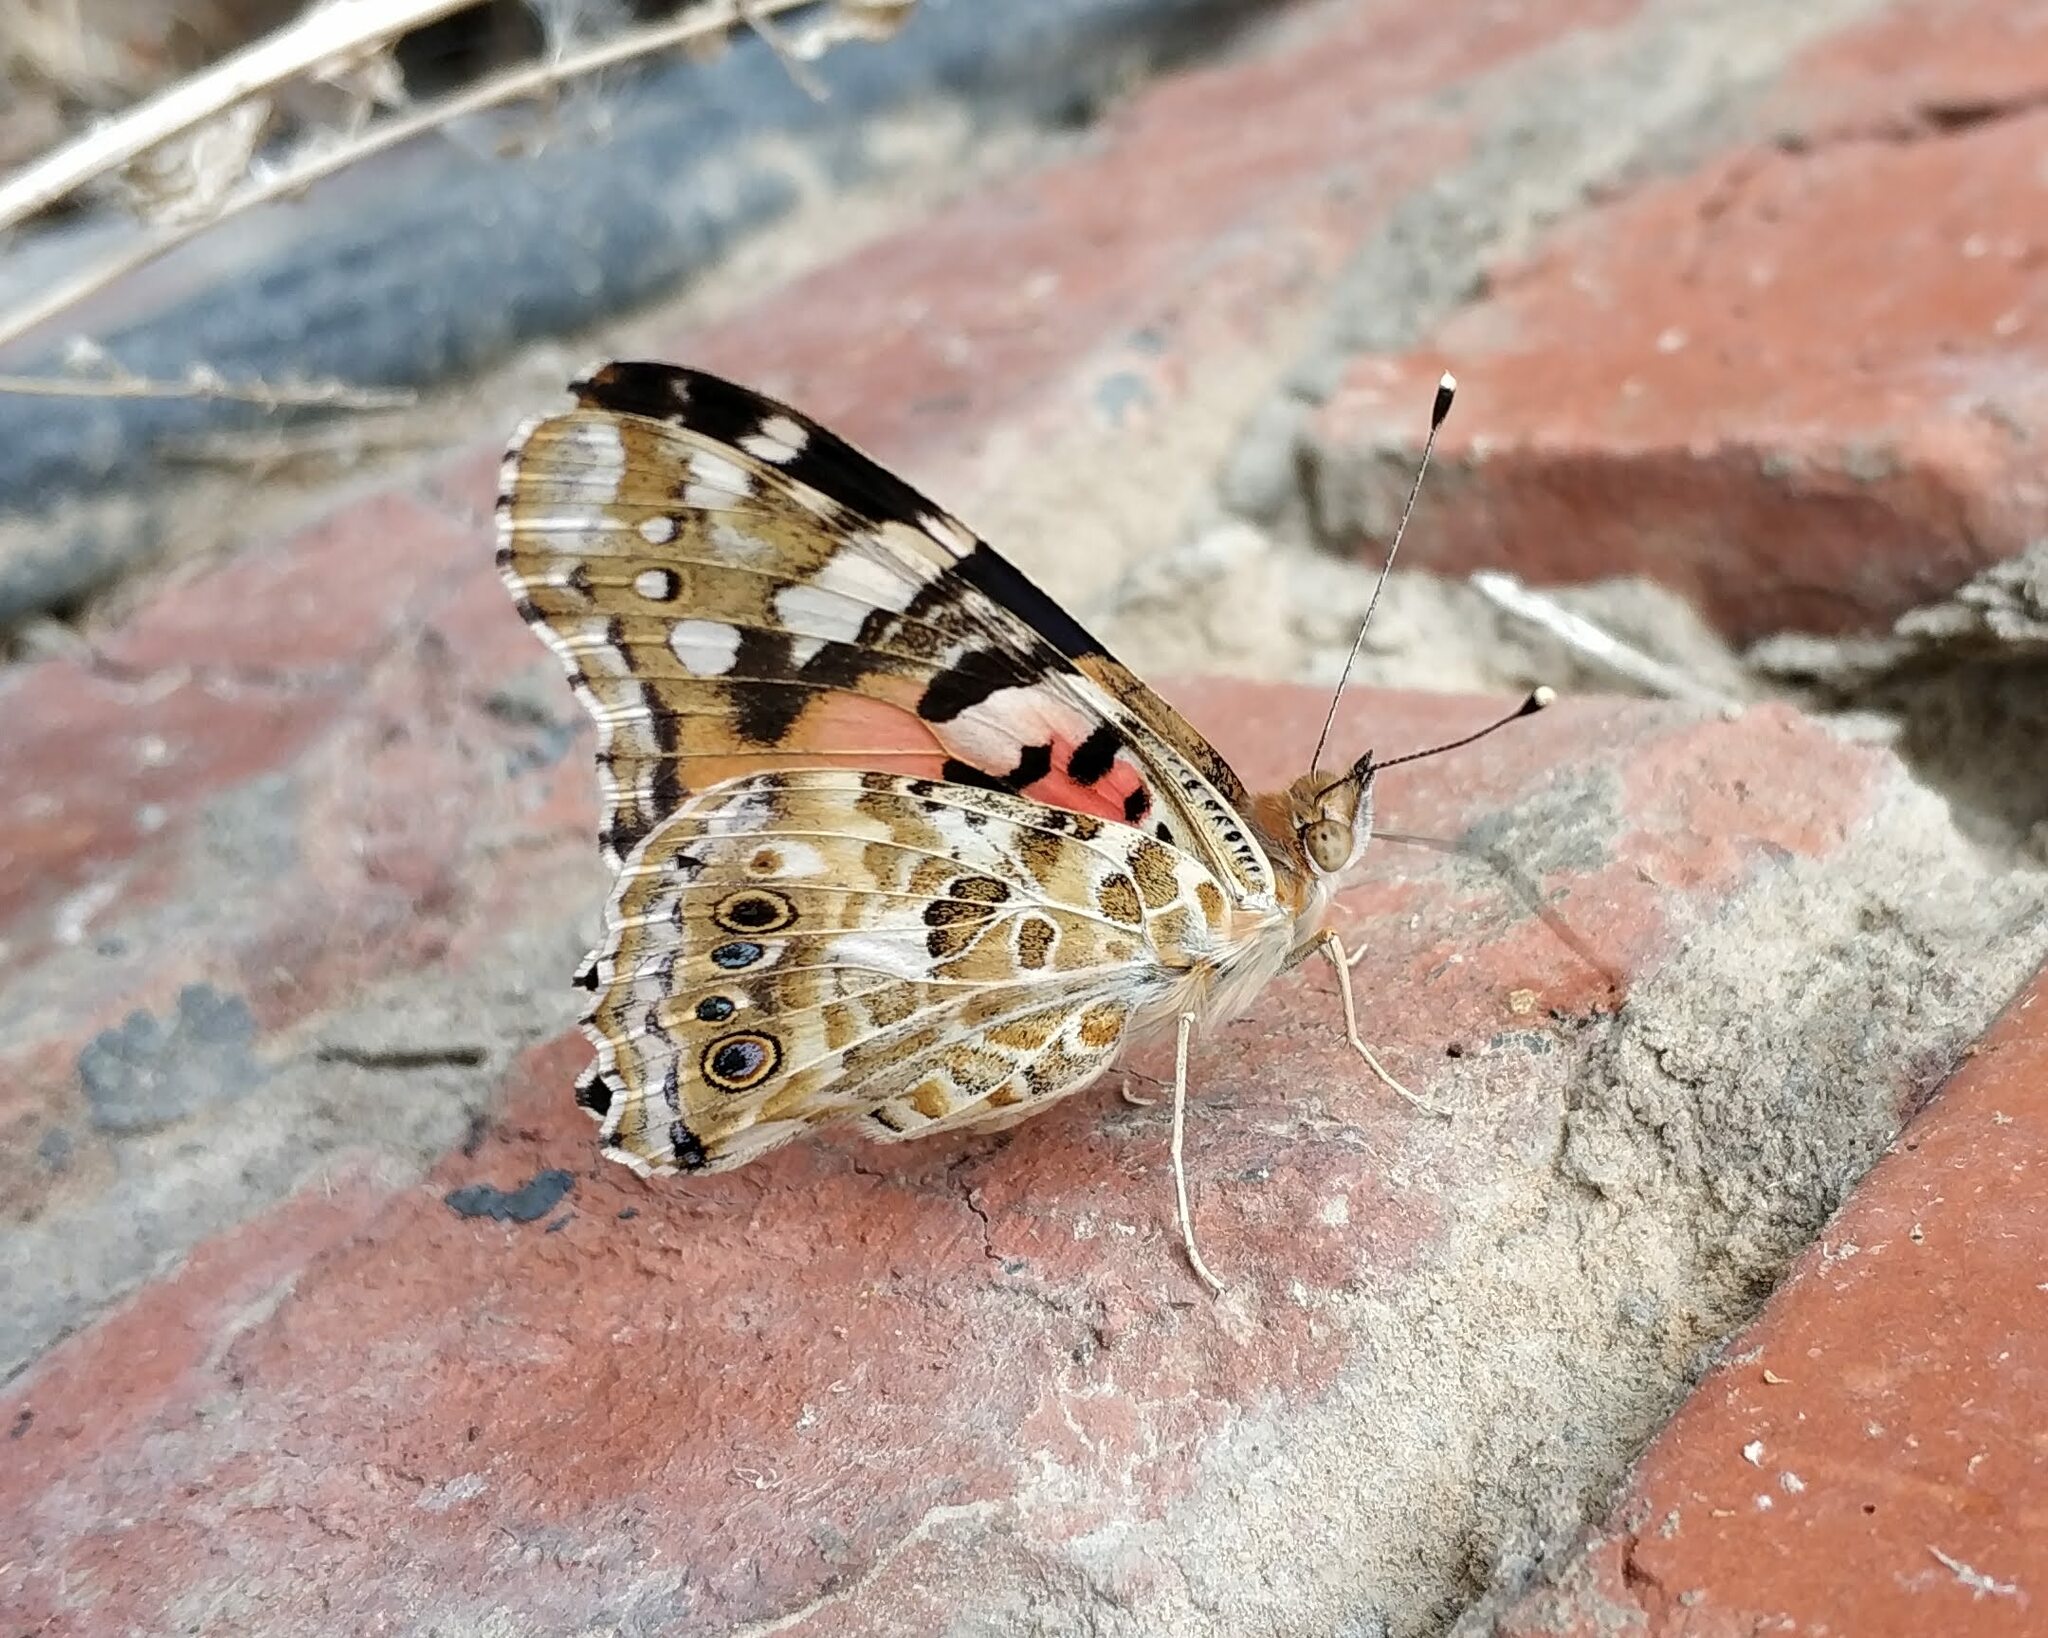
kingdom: Animalia
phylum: Arthropoda
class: Insecta
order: Lepidoptera
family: Nymphalidae
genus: Vanessa
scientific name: Vanessa cardui
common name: Painted lady
